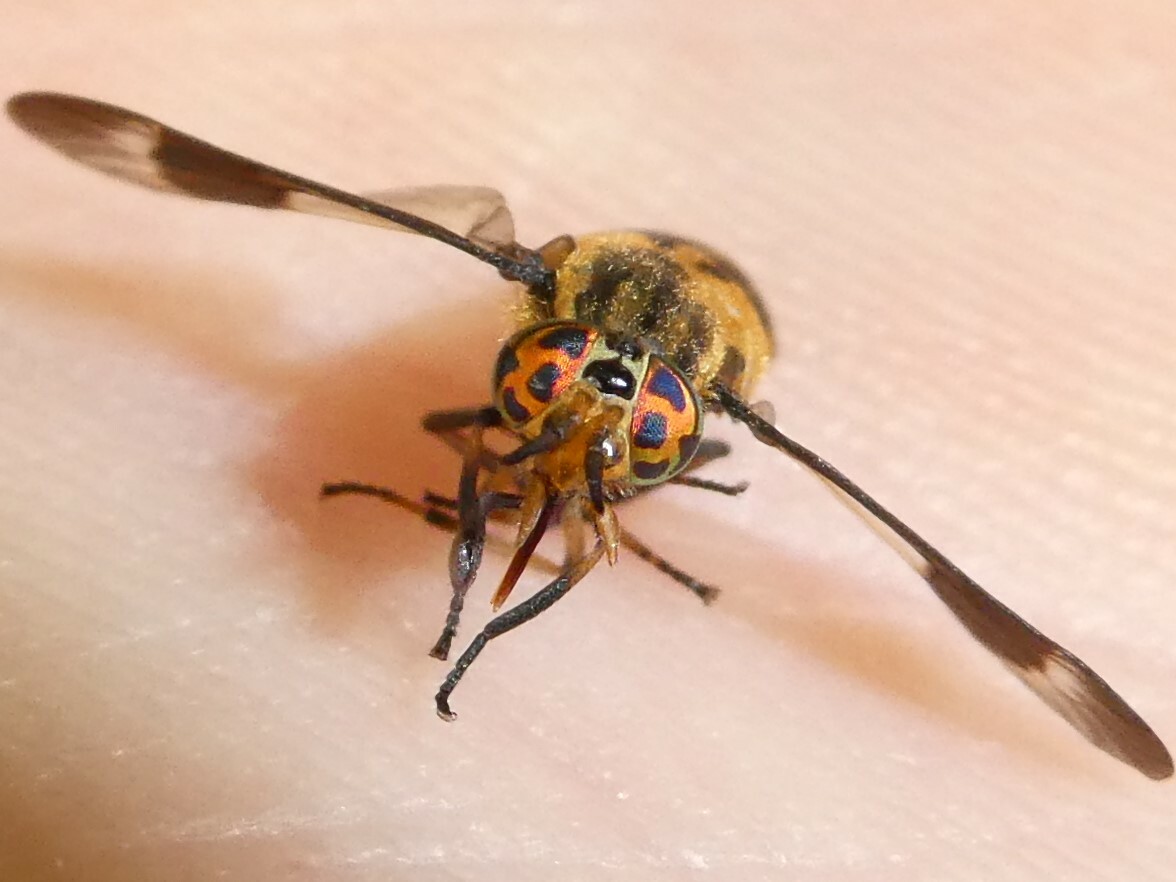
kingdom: Animalia
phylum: Arthropoda
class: Insecta
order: Diptera
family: Tabanidae
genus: Chrysops
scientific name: Chrysops geminatus
